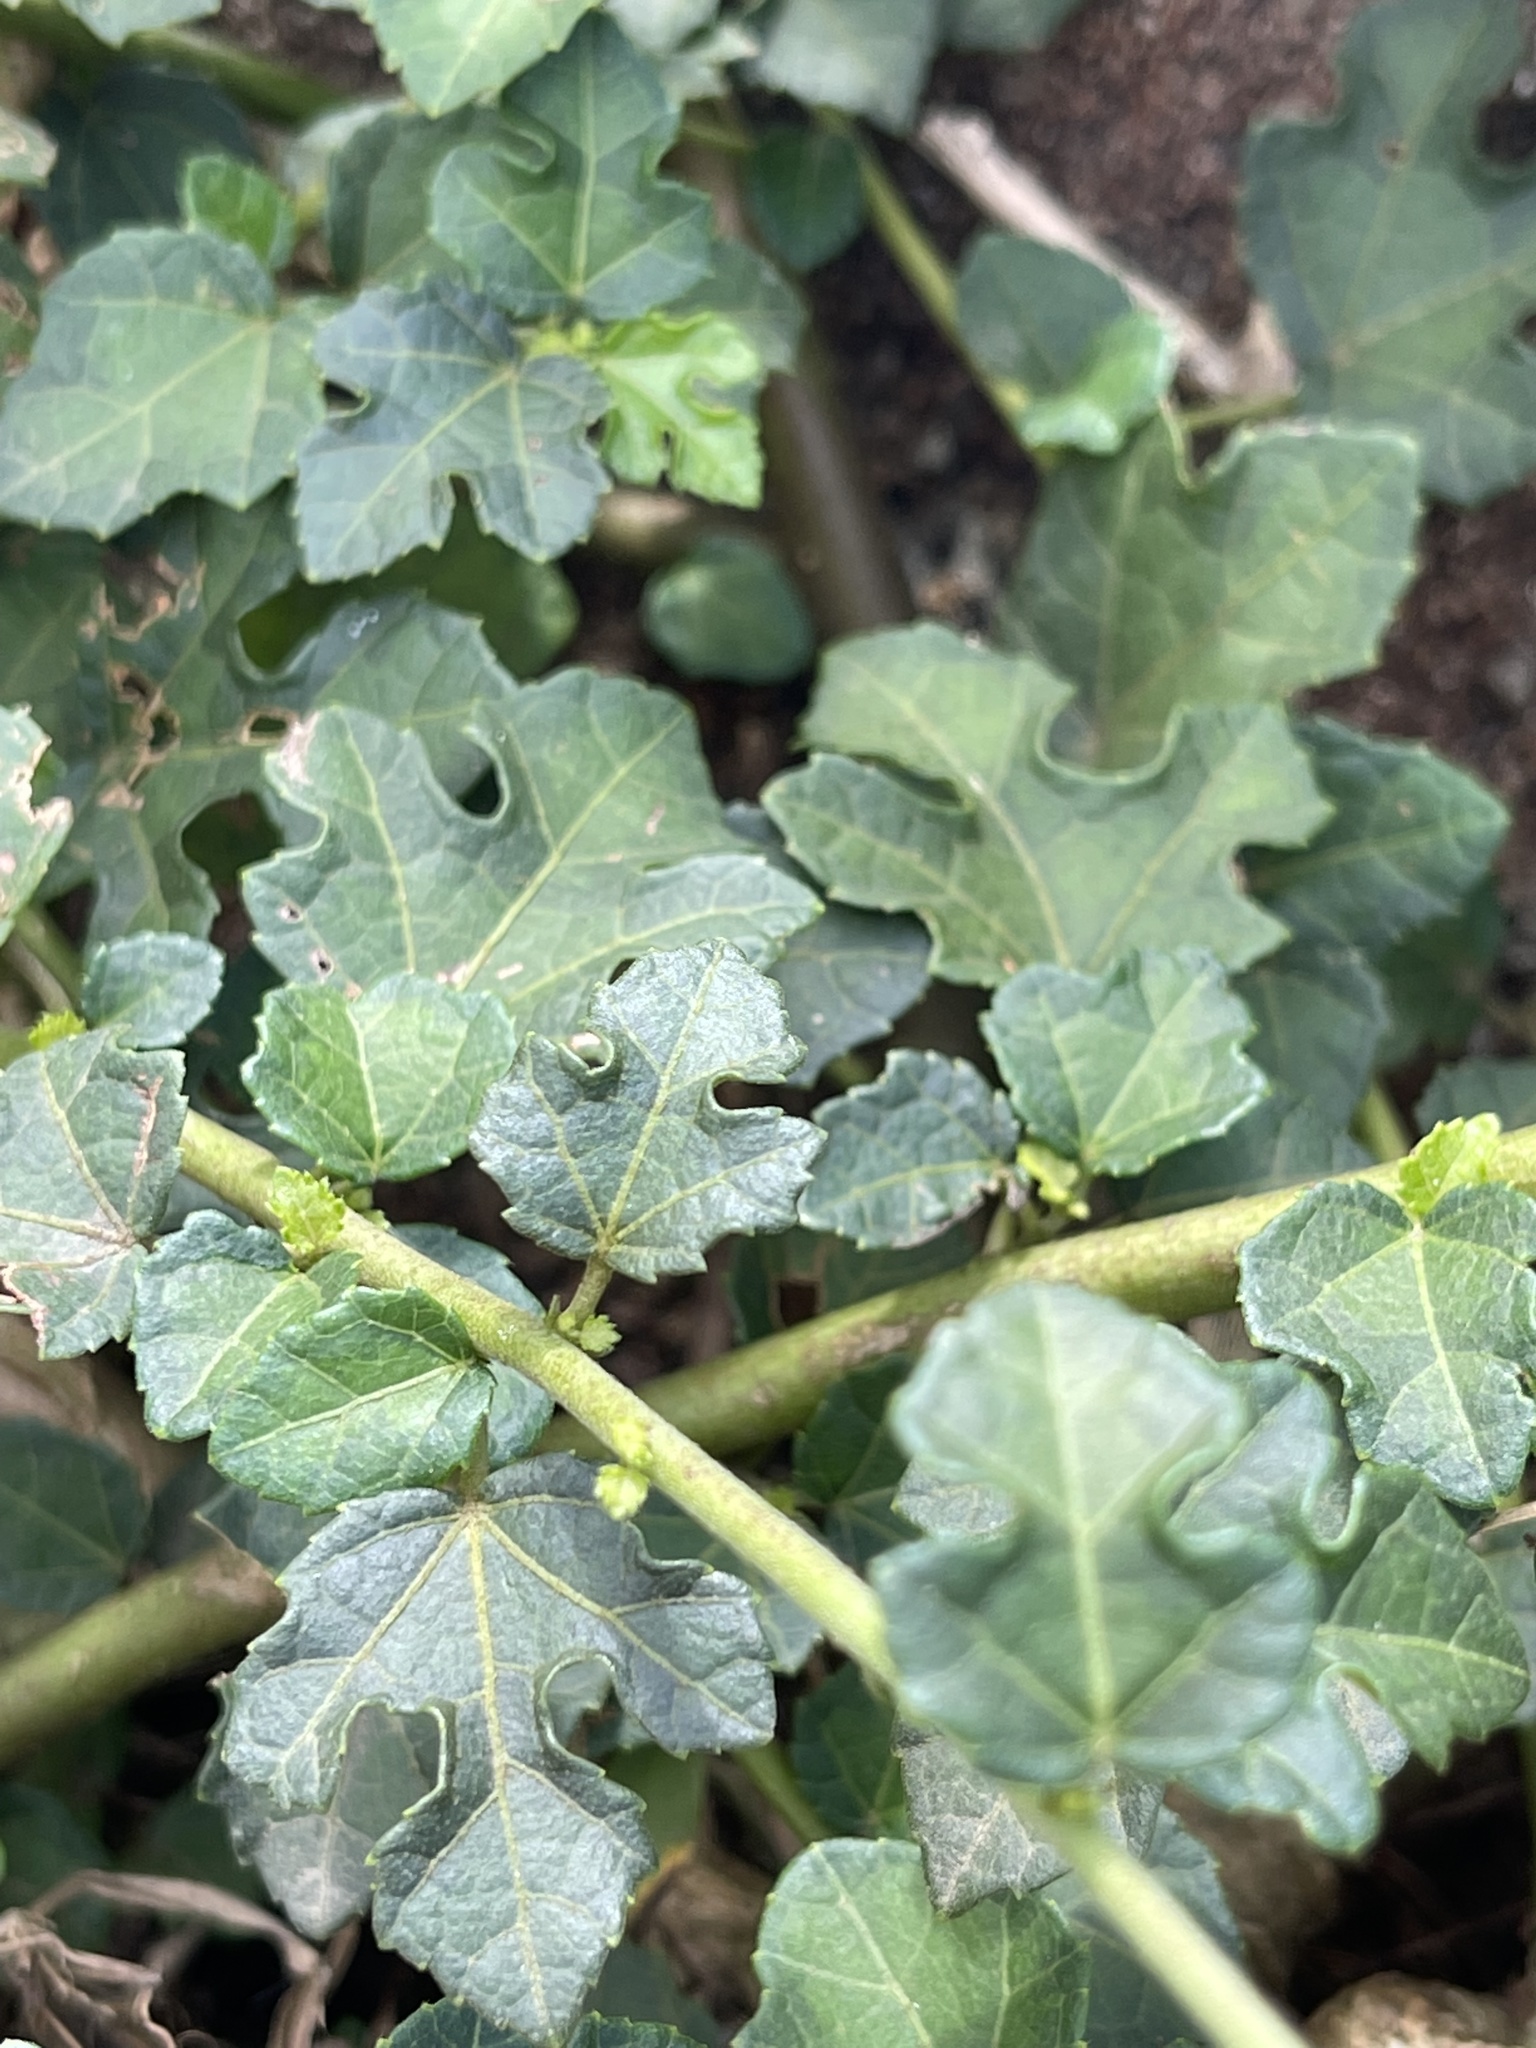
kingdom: Plantae
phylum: Tracheophyta
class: Magnoliopsida
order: Malvales
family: Malvaceae
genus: Urena
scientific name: Urena procumbens
